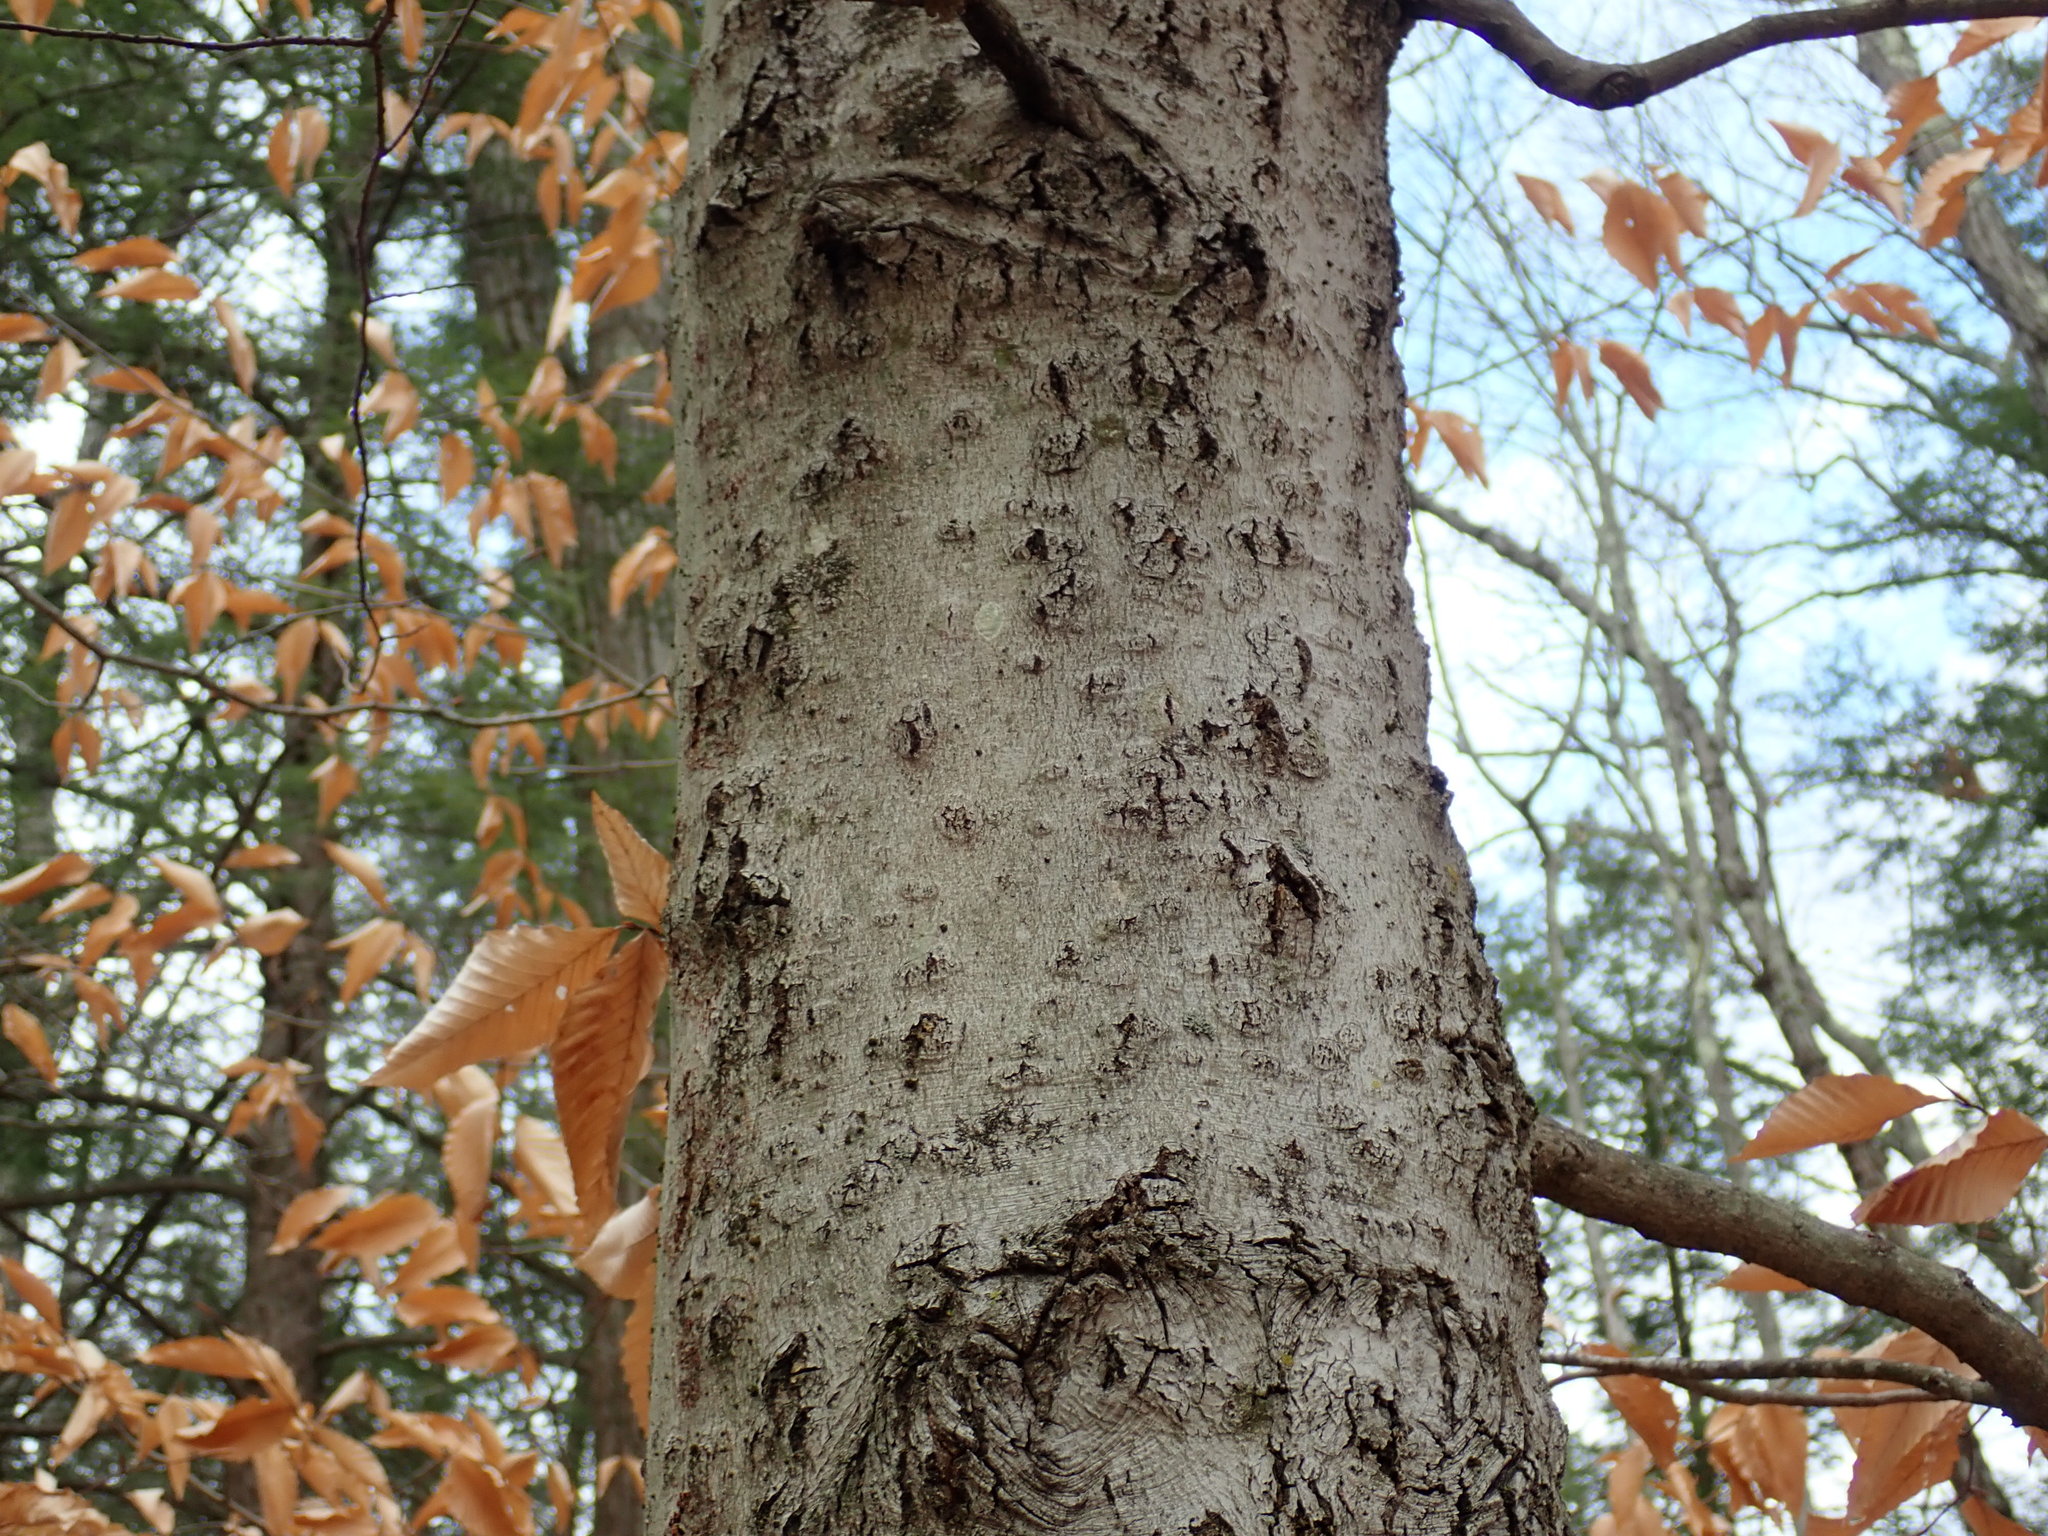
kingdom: Fungi
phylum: Ascomycota
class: Sordariomycetes
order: Hypocreales
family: Nectriaceae
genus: Neonectria
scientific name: Neonectria faginata
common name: Beech bark canker
